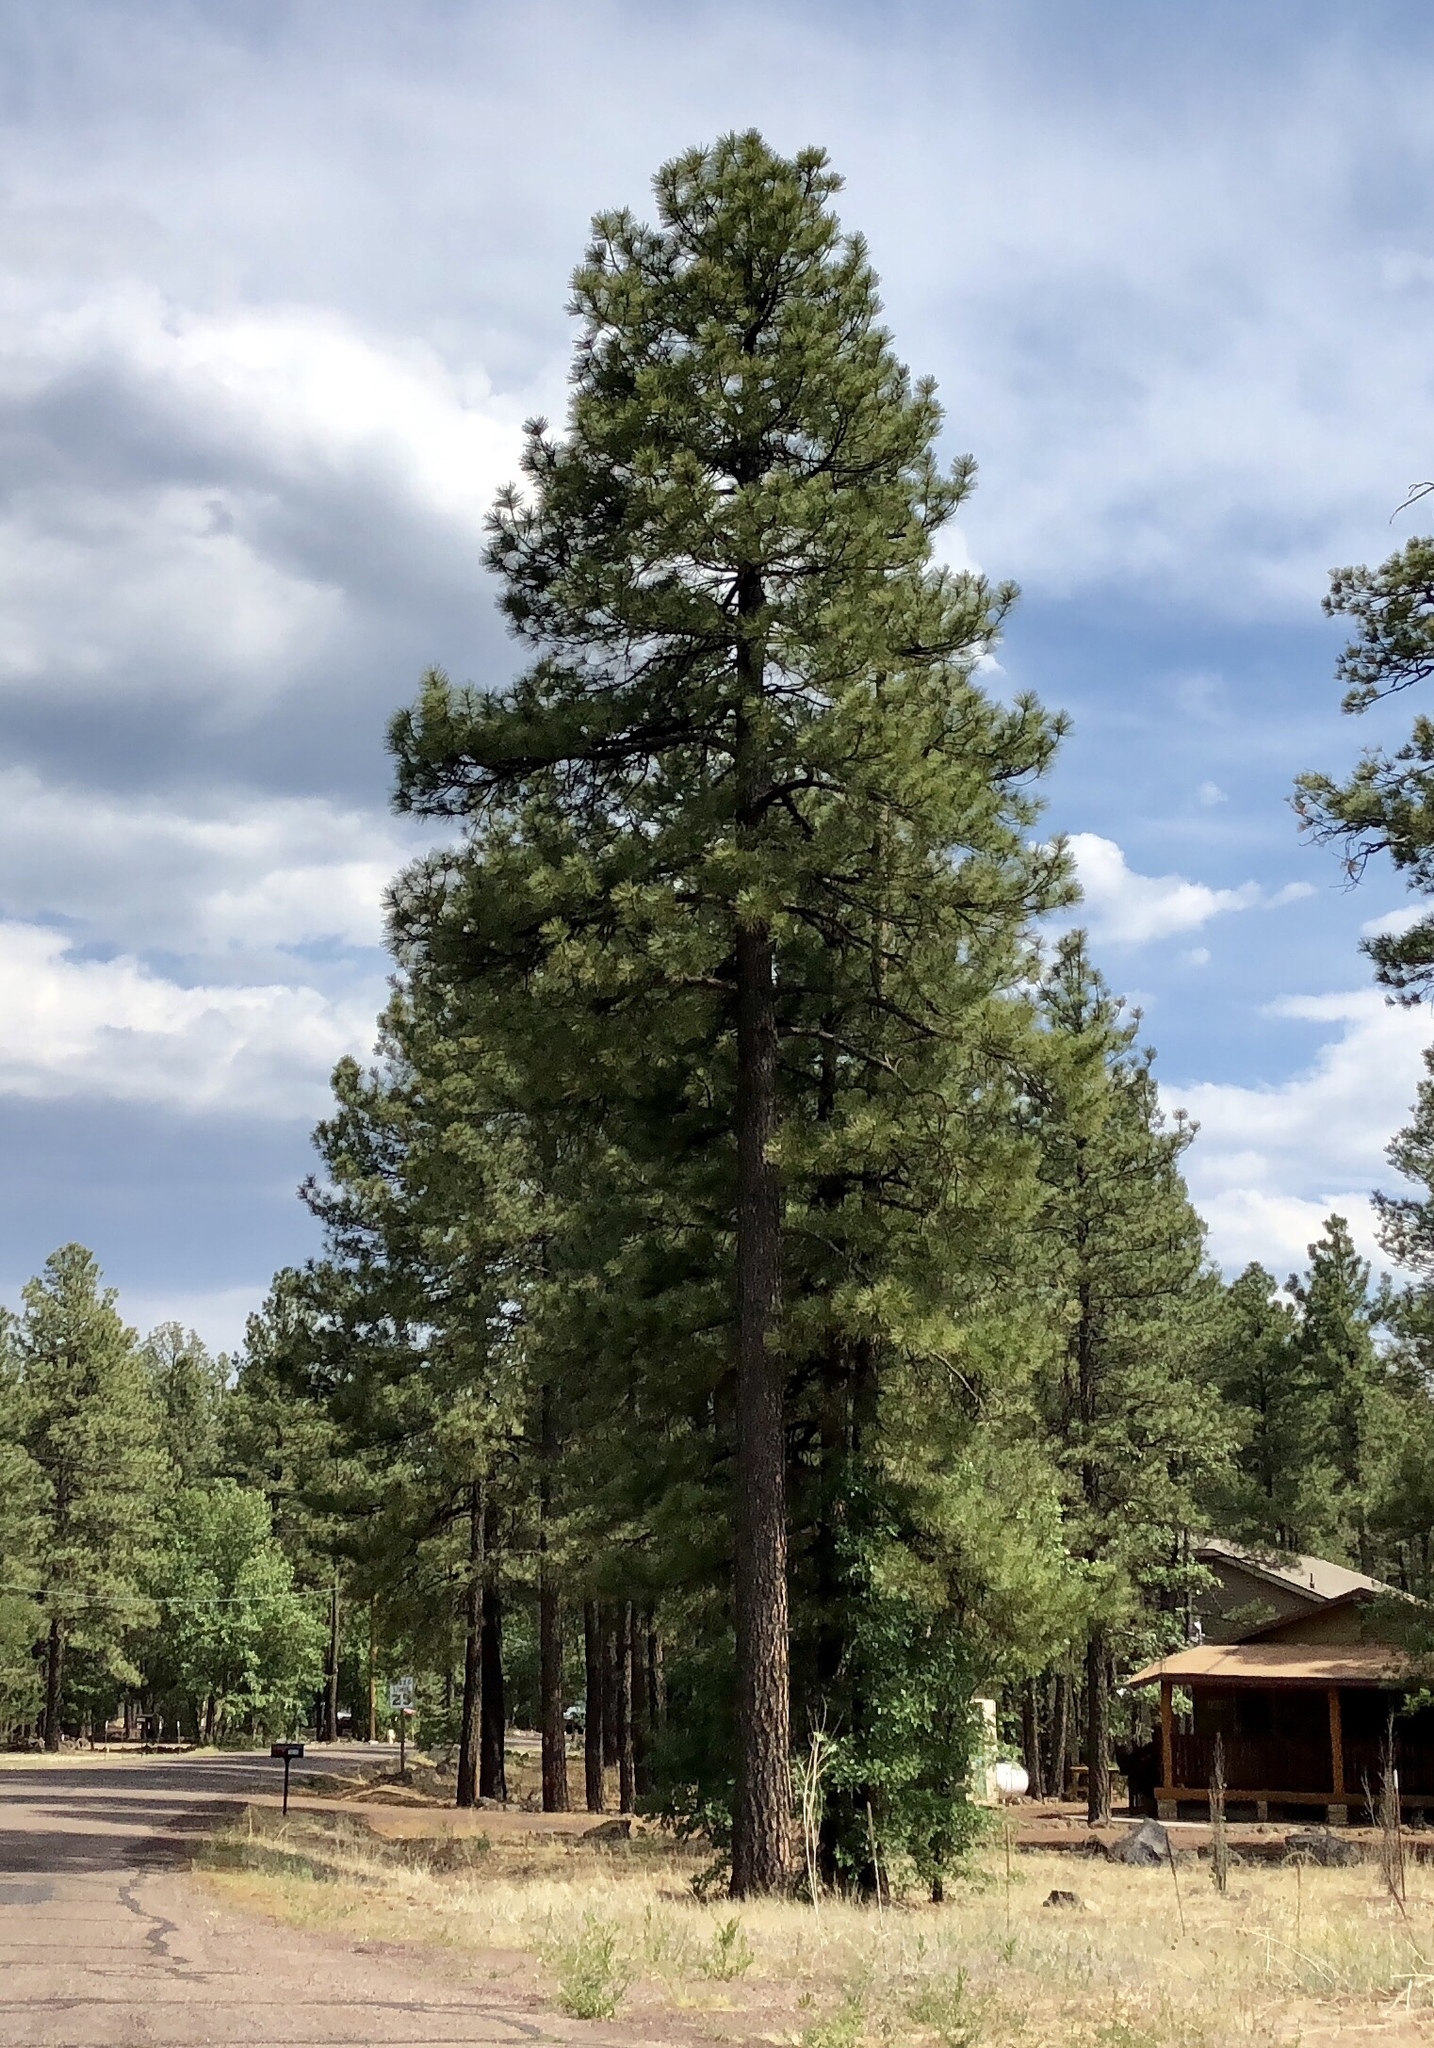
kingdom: Plantae
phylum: Tracheophyta
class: Pinopsida
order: Pinales
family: Pinaceae
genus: Pinus
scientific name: Pinus ponderosa
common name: Western yellow-pine
